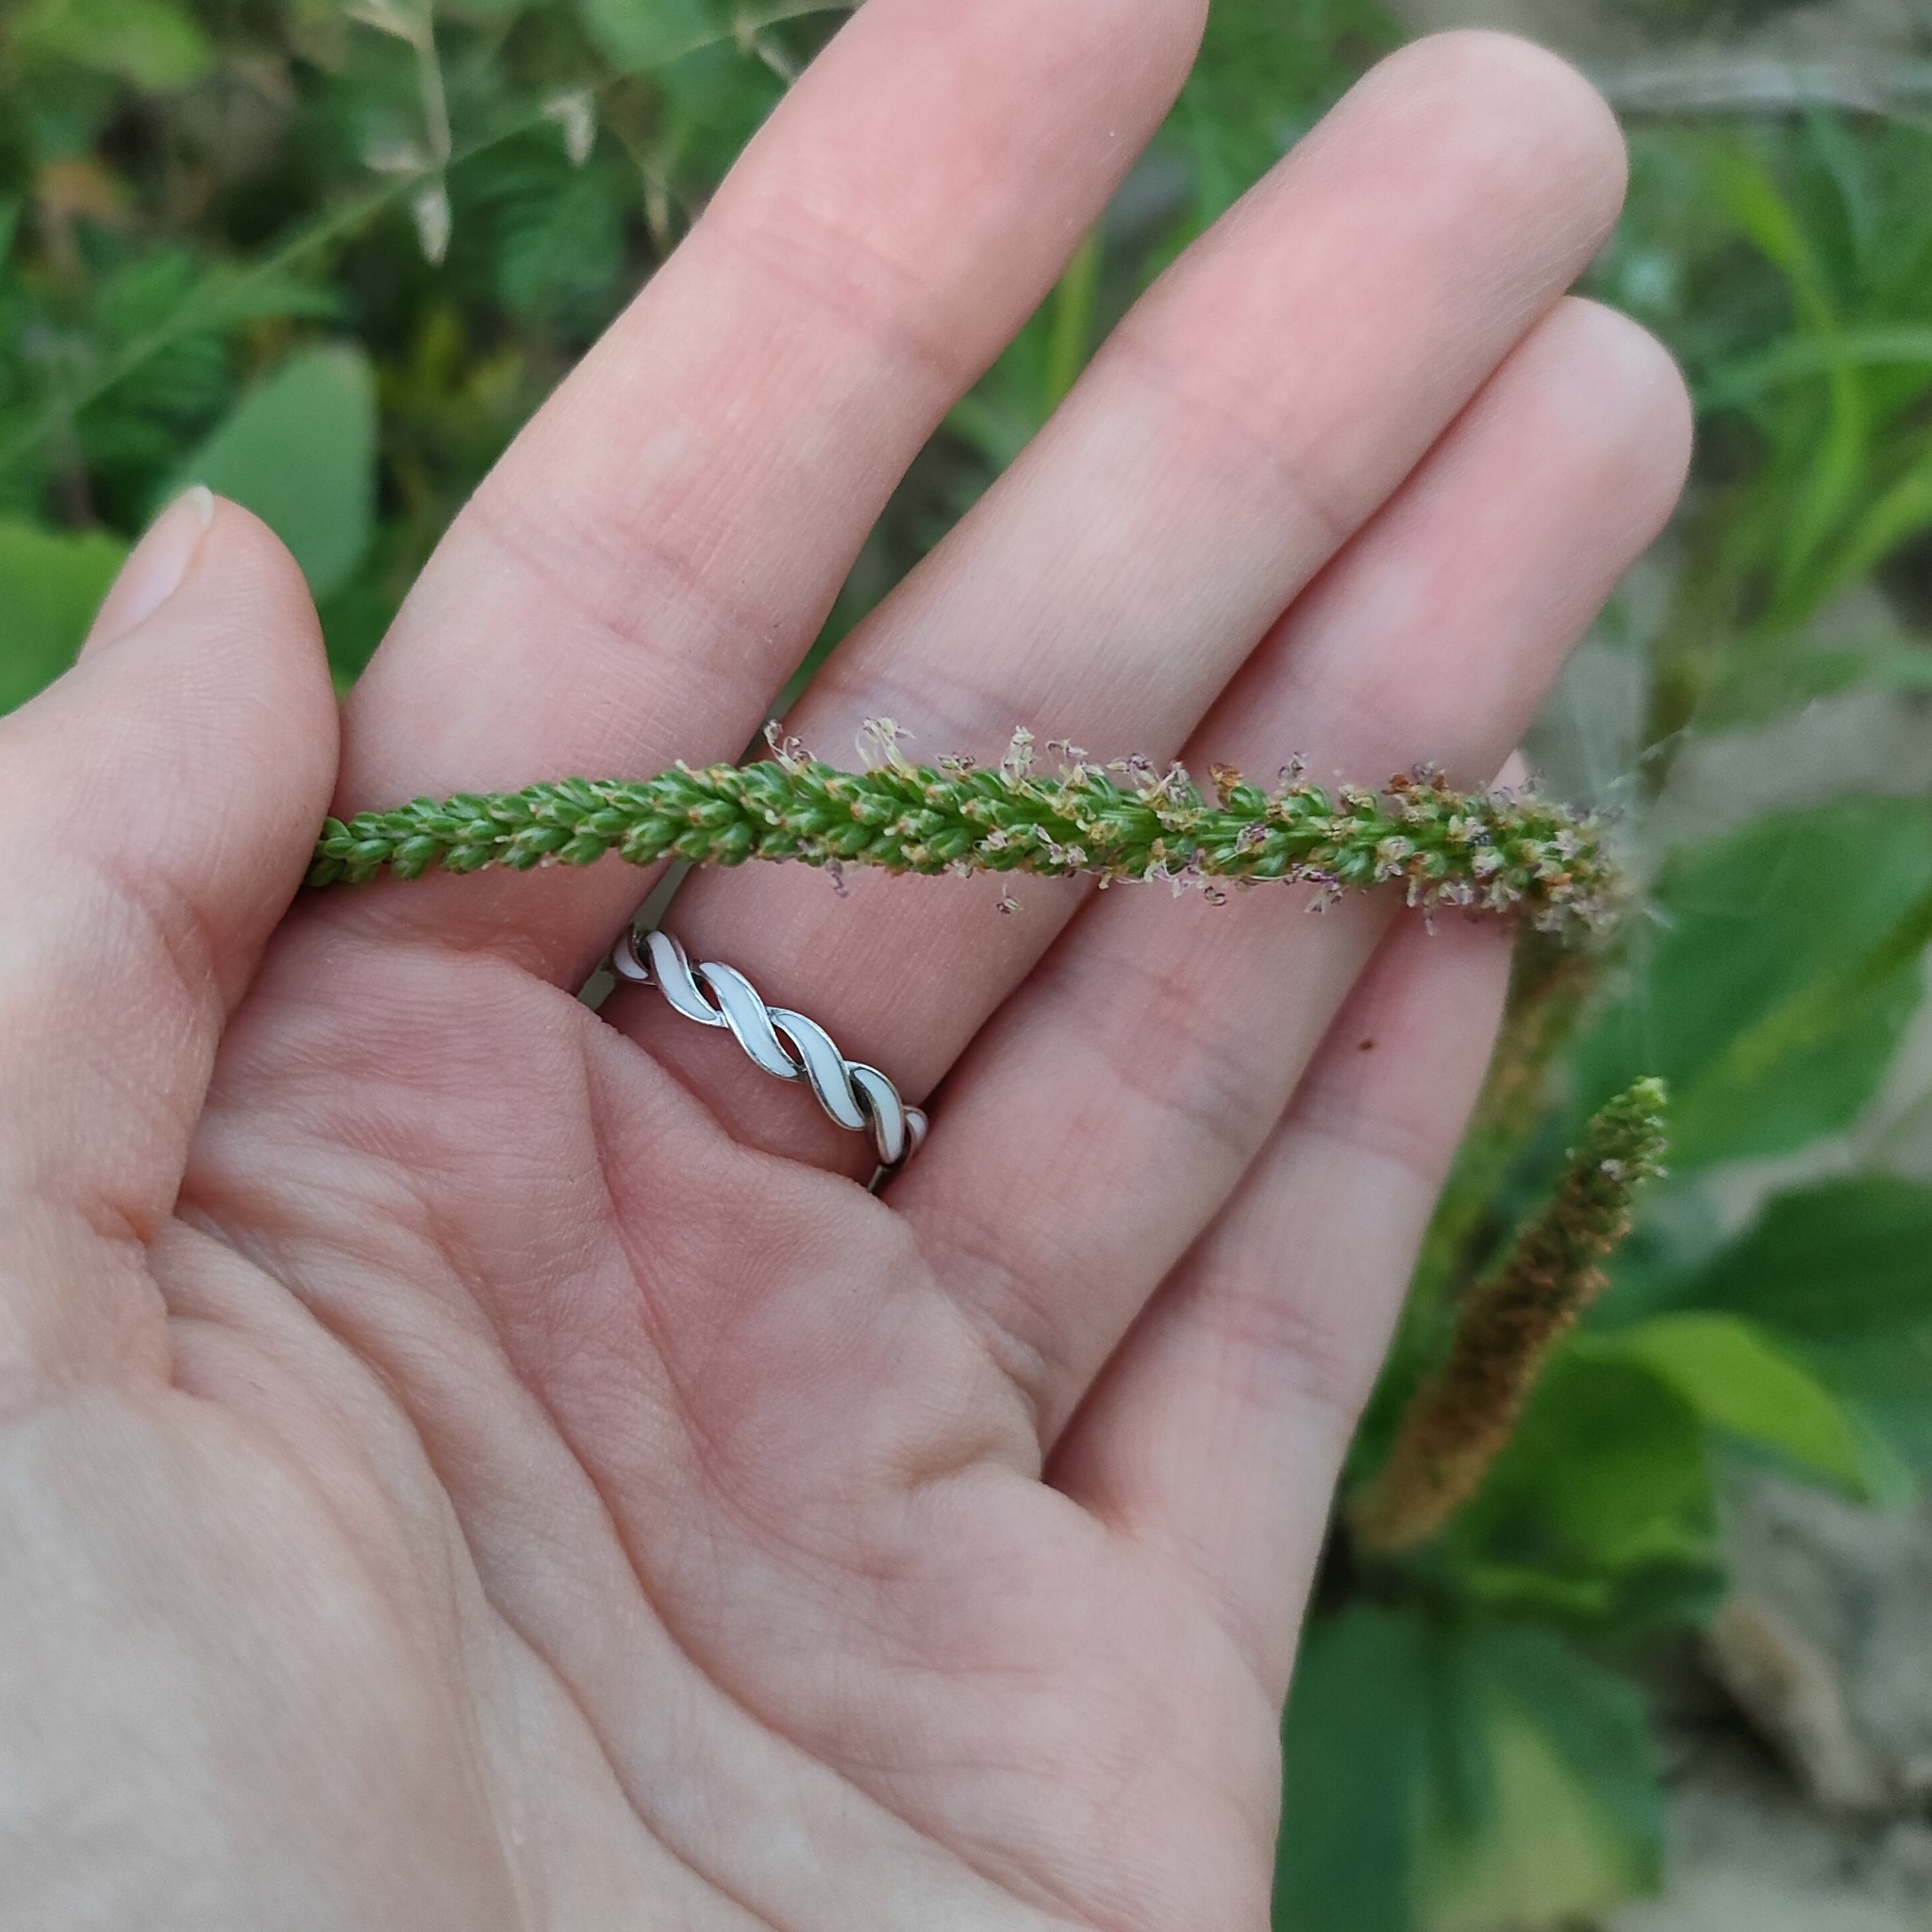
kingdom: Plantae
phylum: Tracheophyta
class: Magnoliopsida
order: Lamiales
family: Plantaginaceae
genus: Plantago
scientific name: Plantago major
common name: Common plantain
